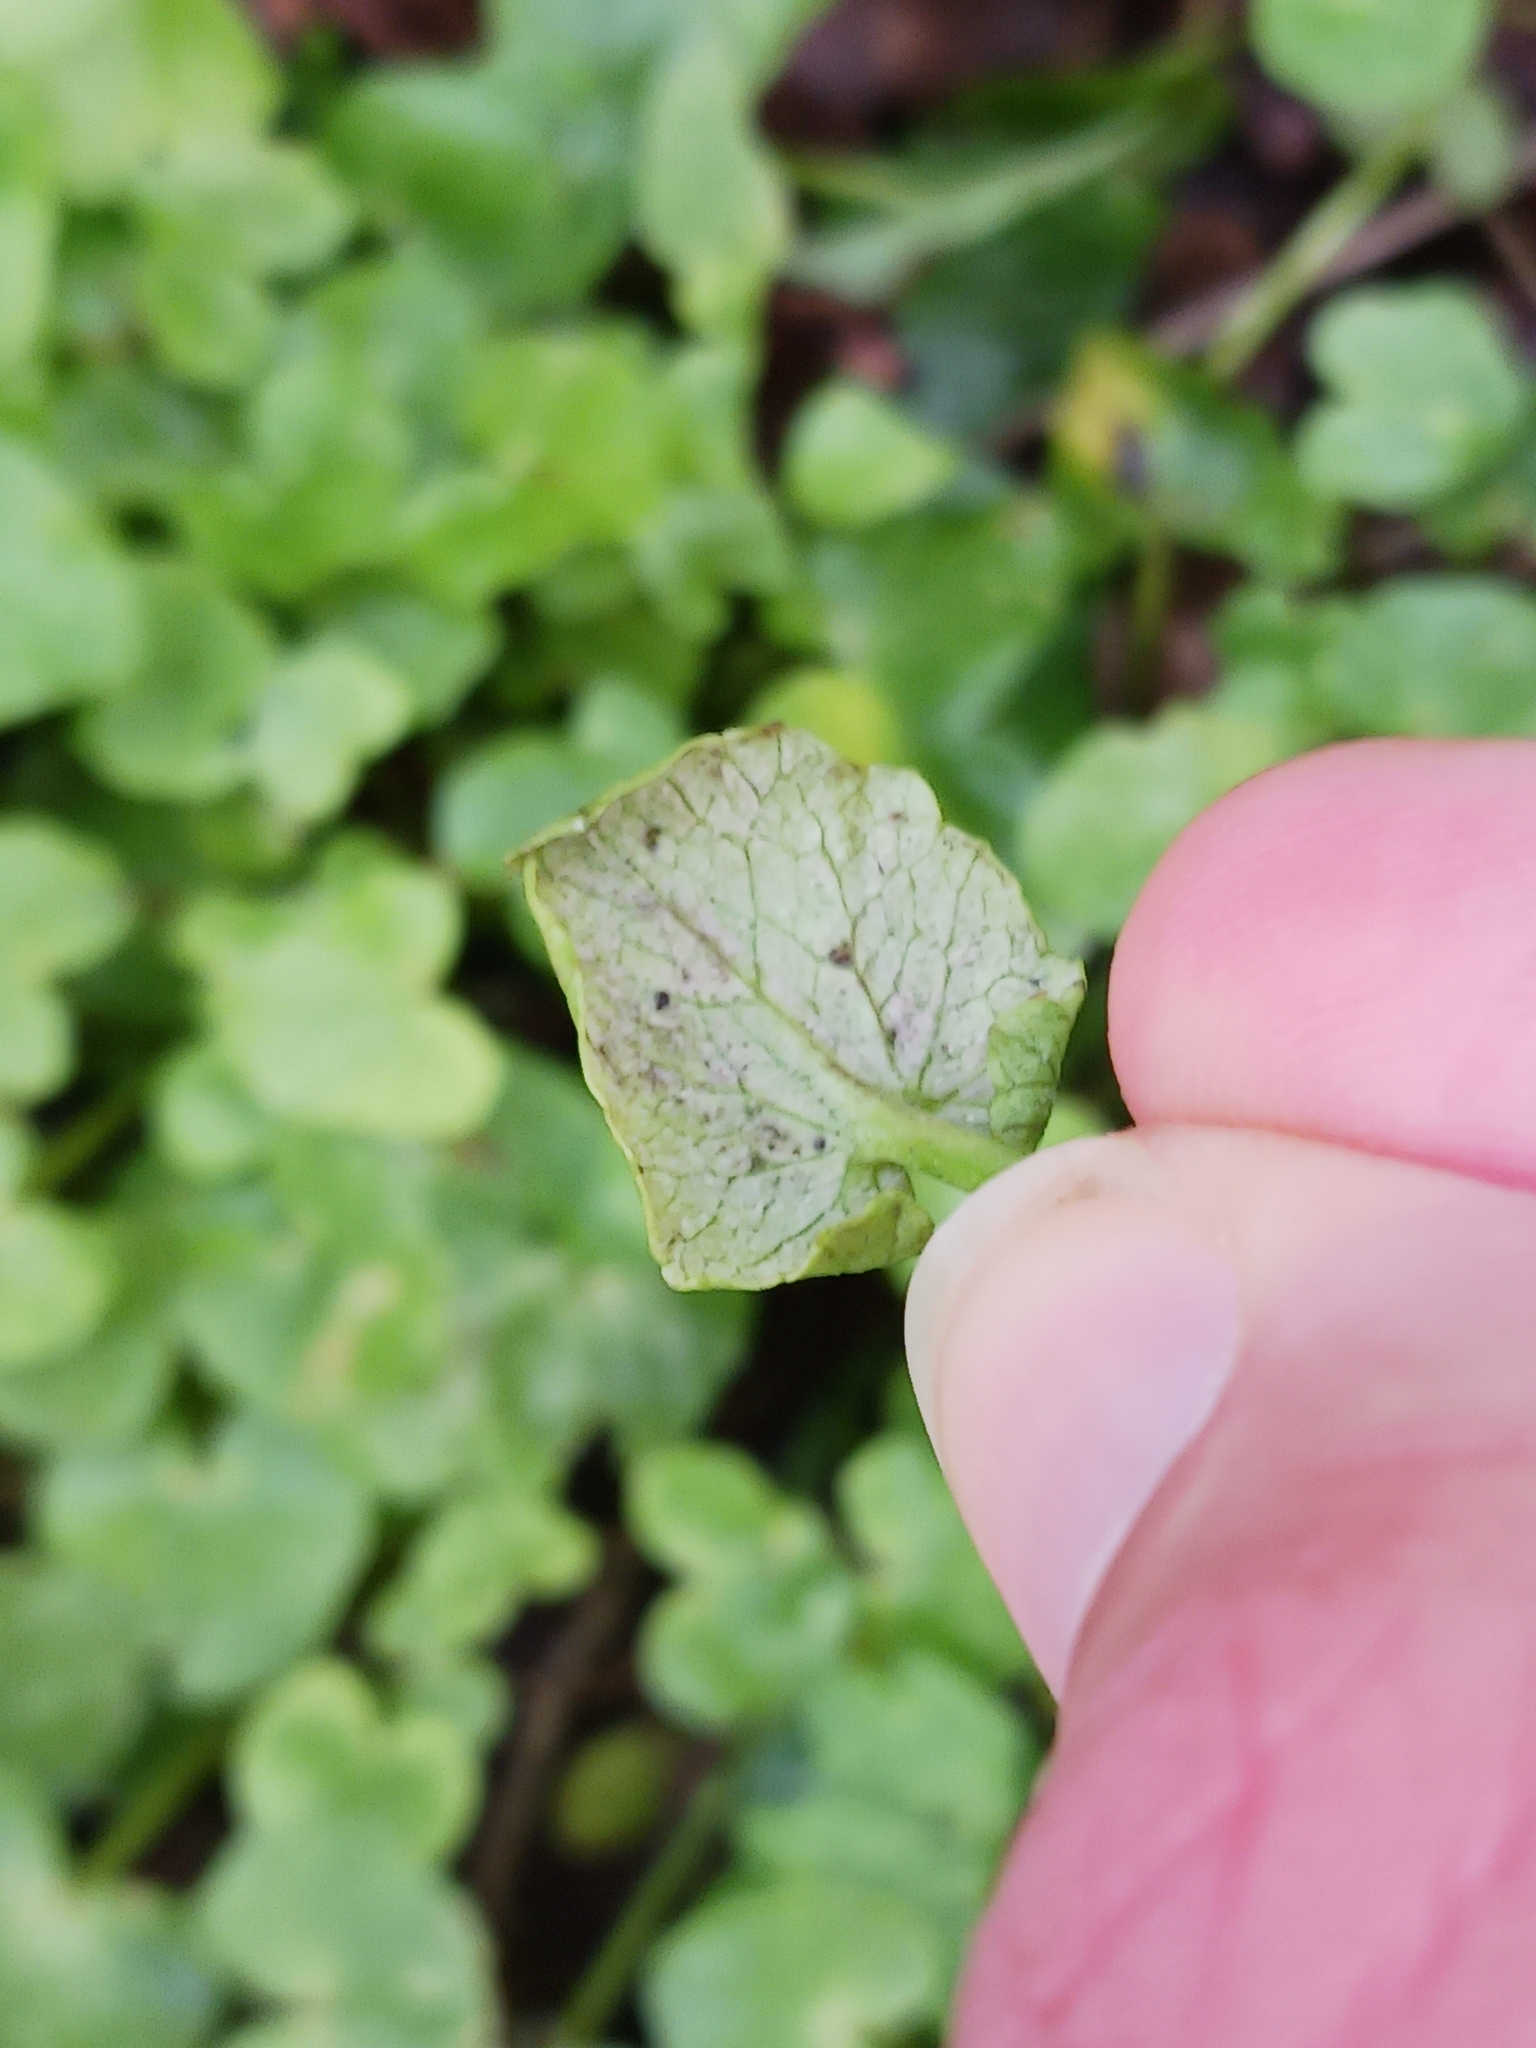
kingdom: Chromista
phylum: Oomycota
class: Peronosporea
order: Peronosporales
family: Peronosporaceae
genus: Peronospora
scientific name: Peronospora ficariae
